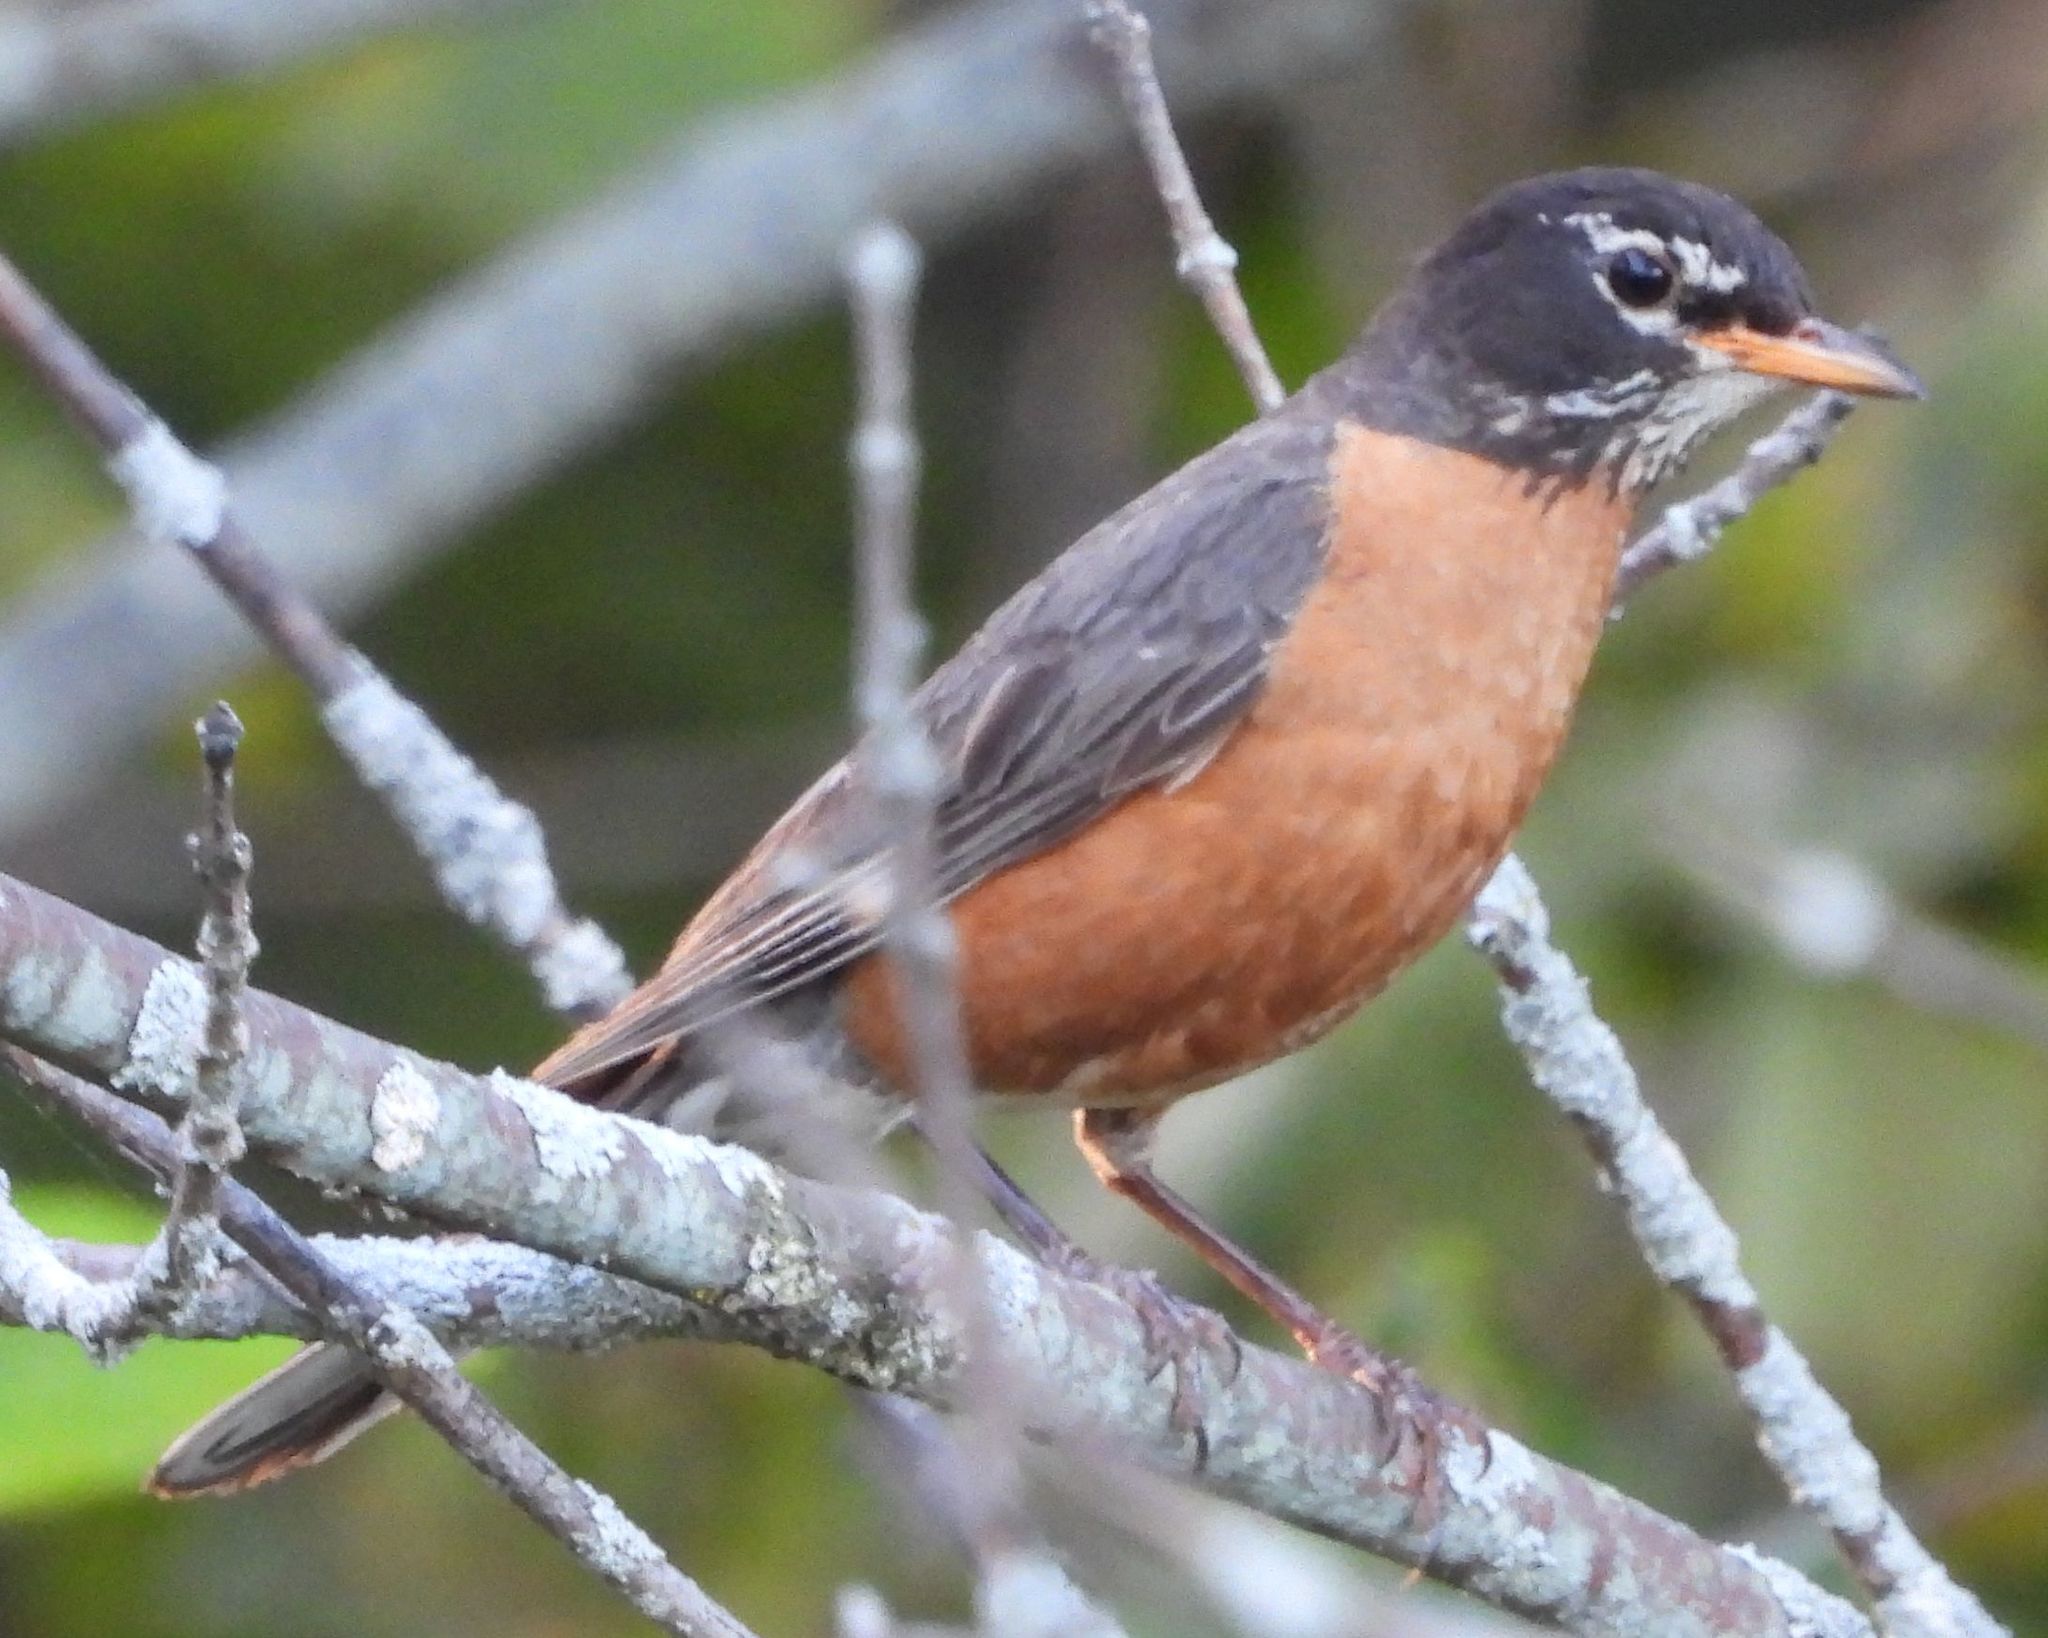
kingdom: Animalia
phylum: Chordata
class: Aves
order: Passeriformes
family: Turdidae
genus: Turdus
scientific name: Turdus migratorius
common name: American robin
